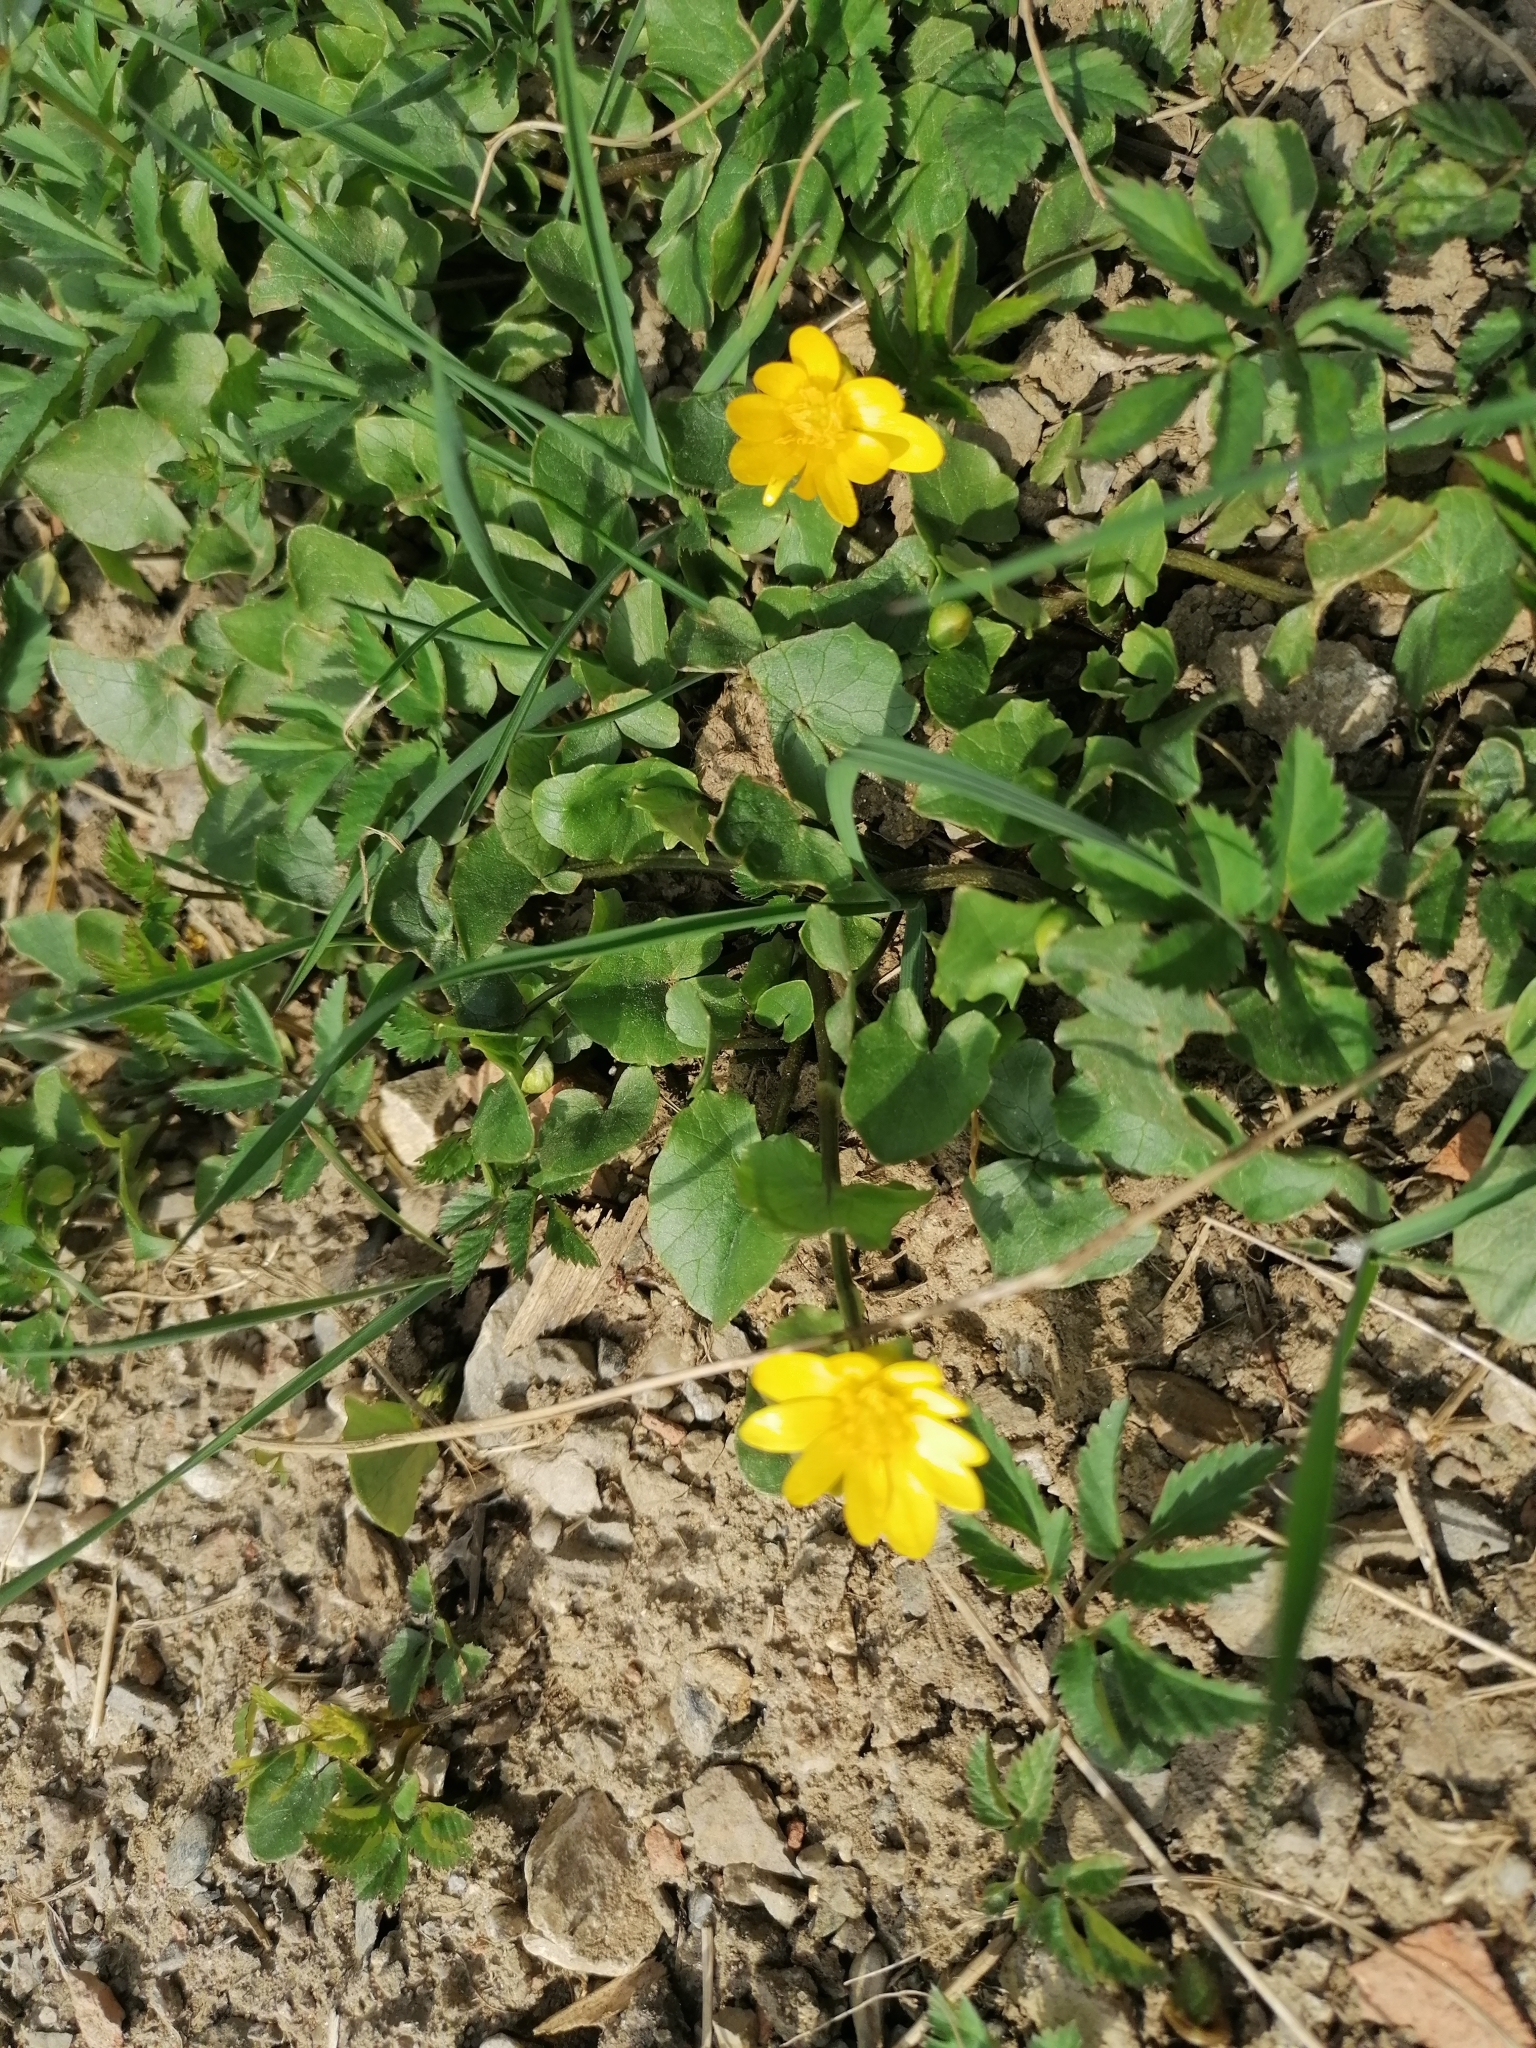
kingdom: Plantae
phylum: Tracheophyta
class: Magnoliopsida
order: Ranunculales
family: Ranunculaceae
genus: Ficaria
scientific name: Ficaria verna
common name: Lesser celandine
